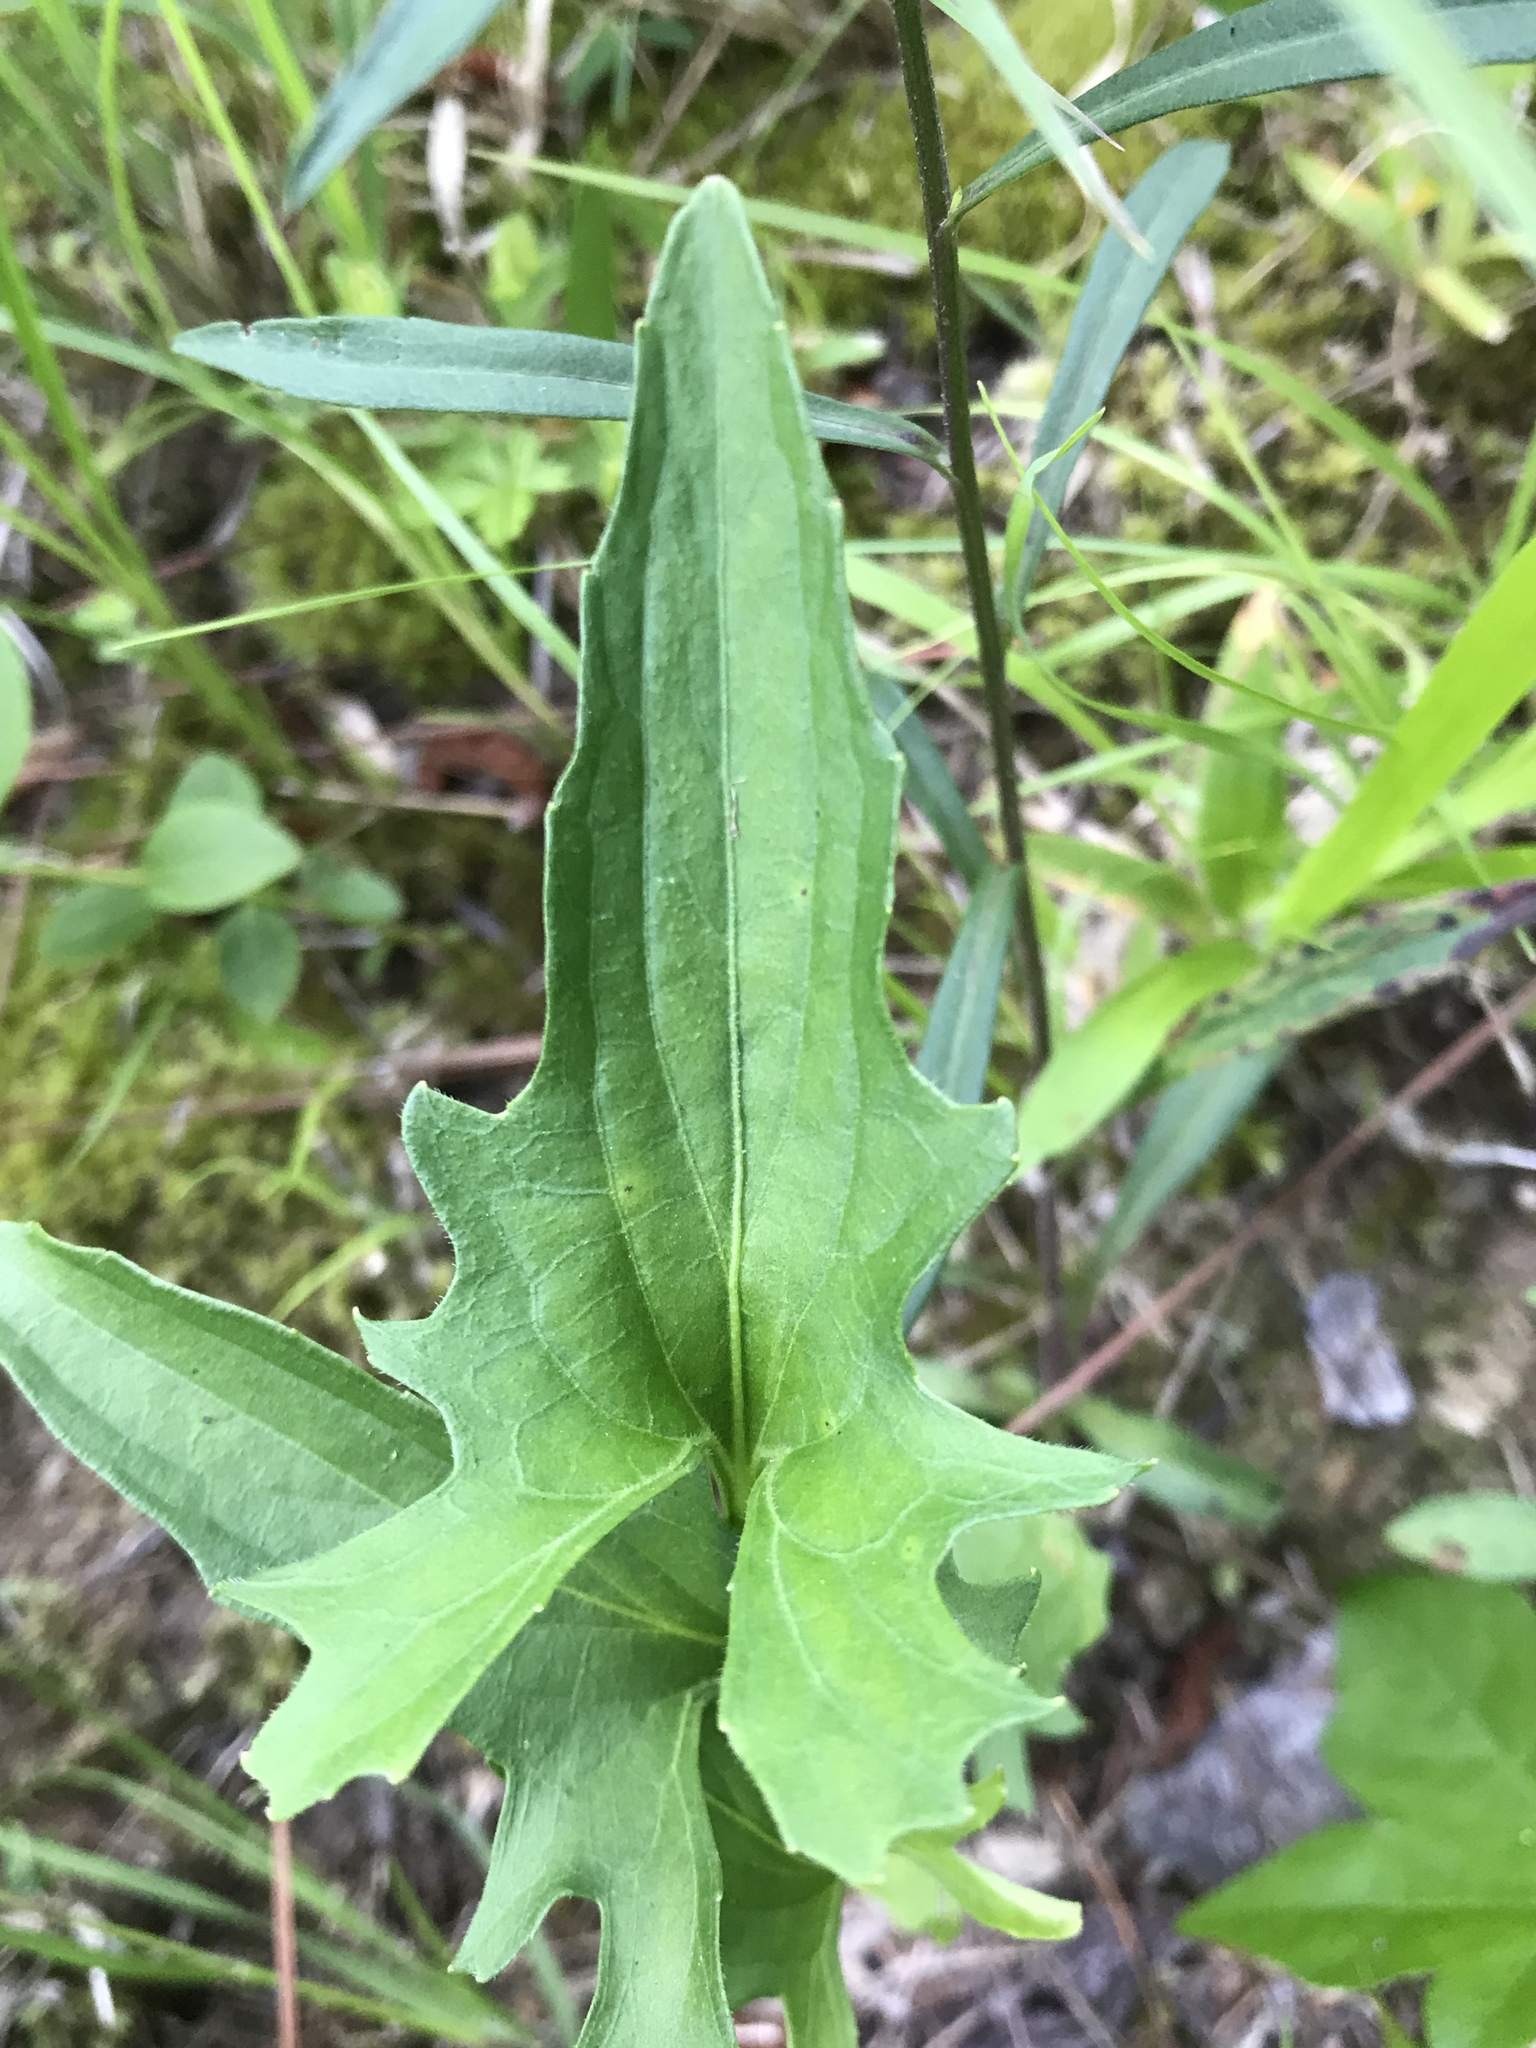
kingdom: Plantae
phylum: Tracheophyta
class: Magnoliopsida
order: Malpighiales
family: Violaceae
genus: Viola
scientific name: Viola palmata
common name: Early blue violet
